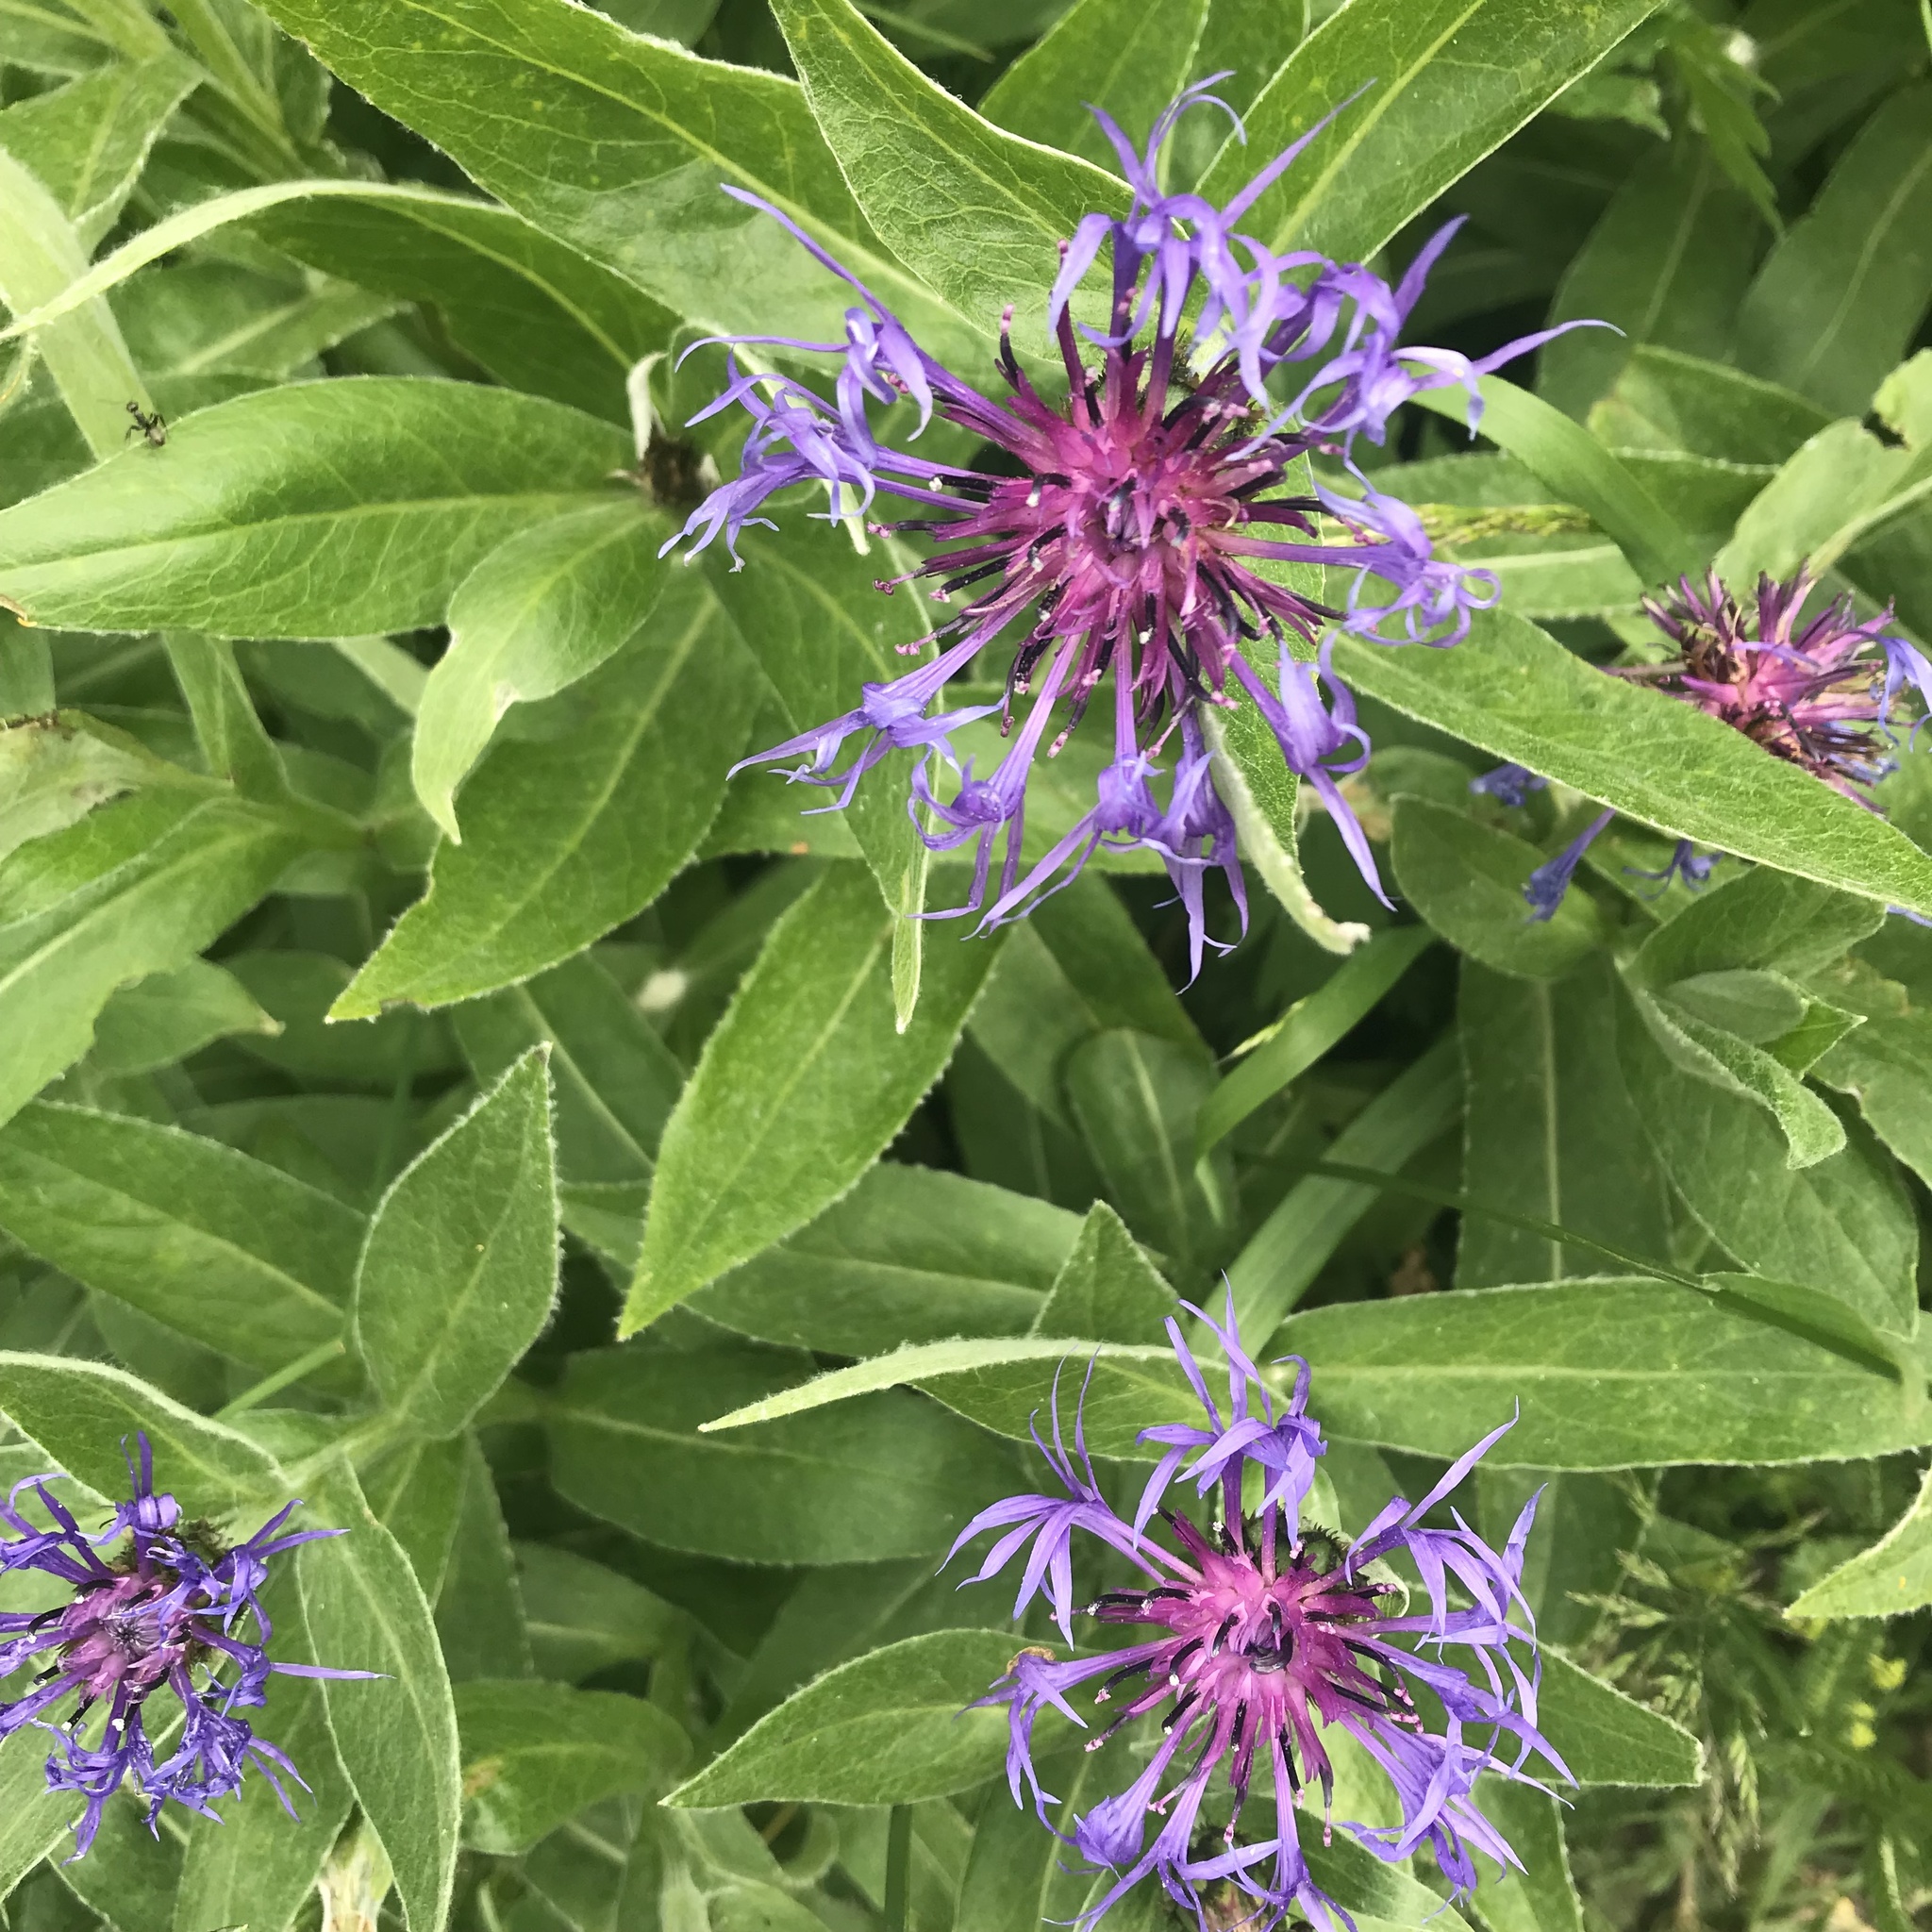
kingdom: Plantae
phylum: Tracheophyta
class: Magnoliopsida
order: Asterales
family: Asteraceae
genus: Centaurea
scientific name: Centaurea montana
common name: Perennial cornflower
